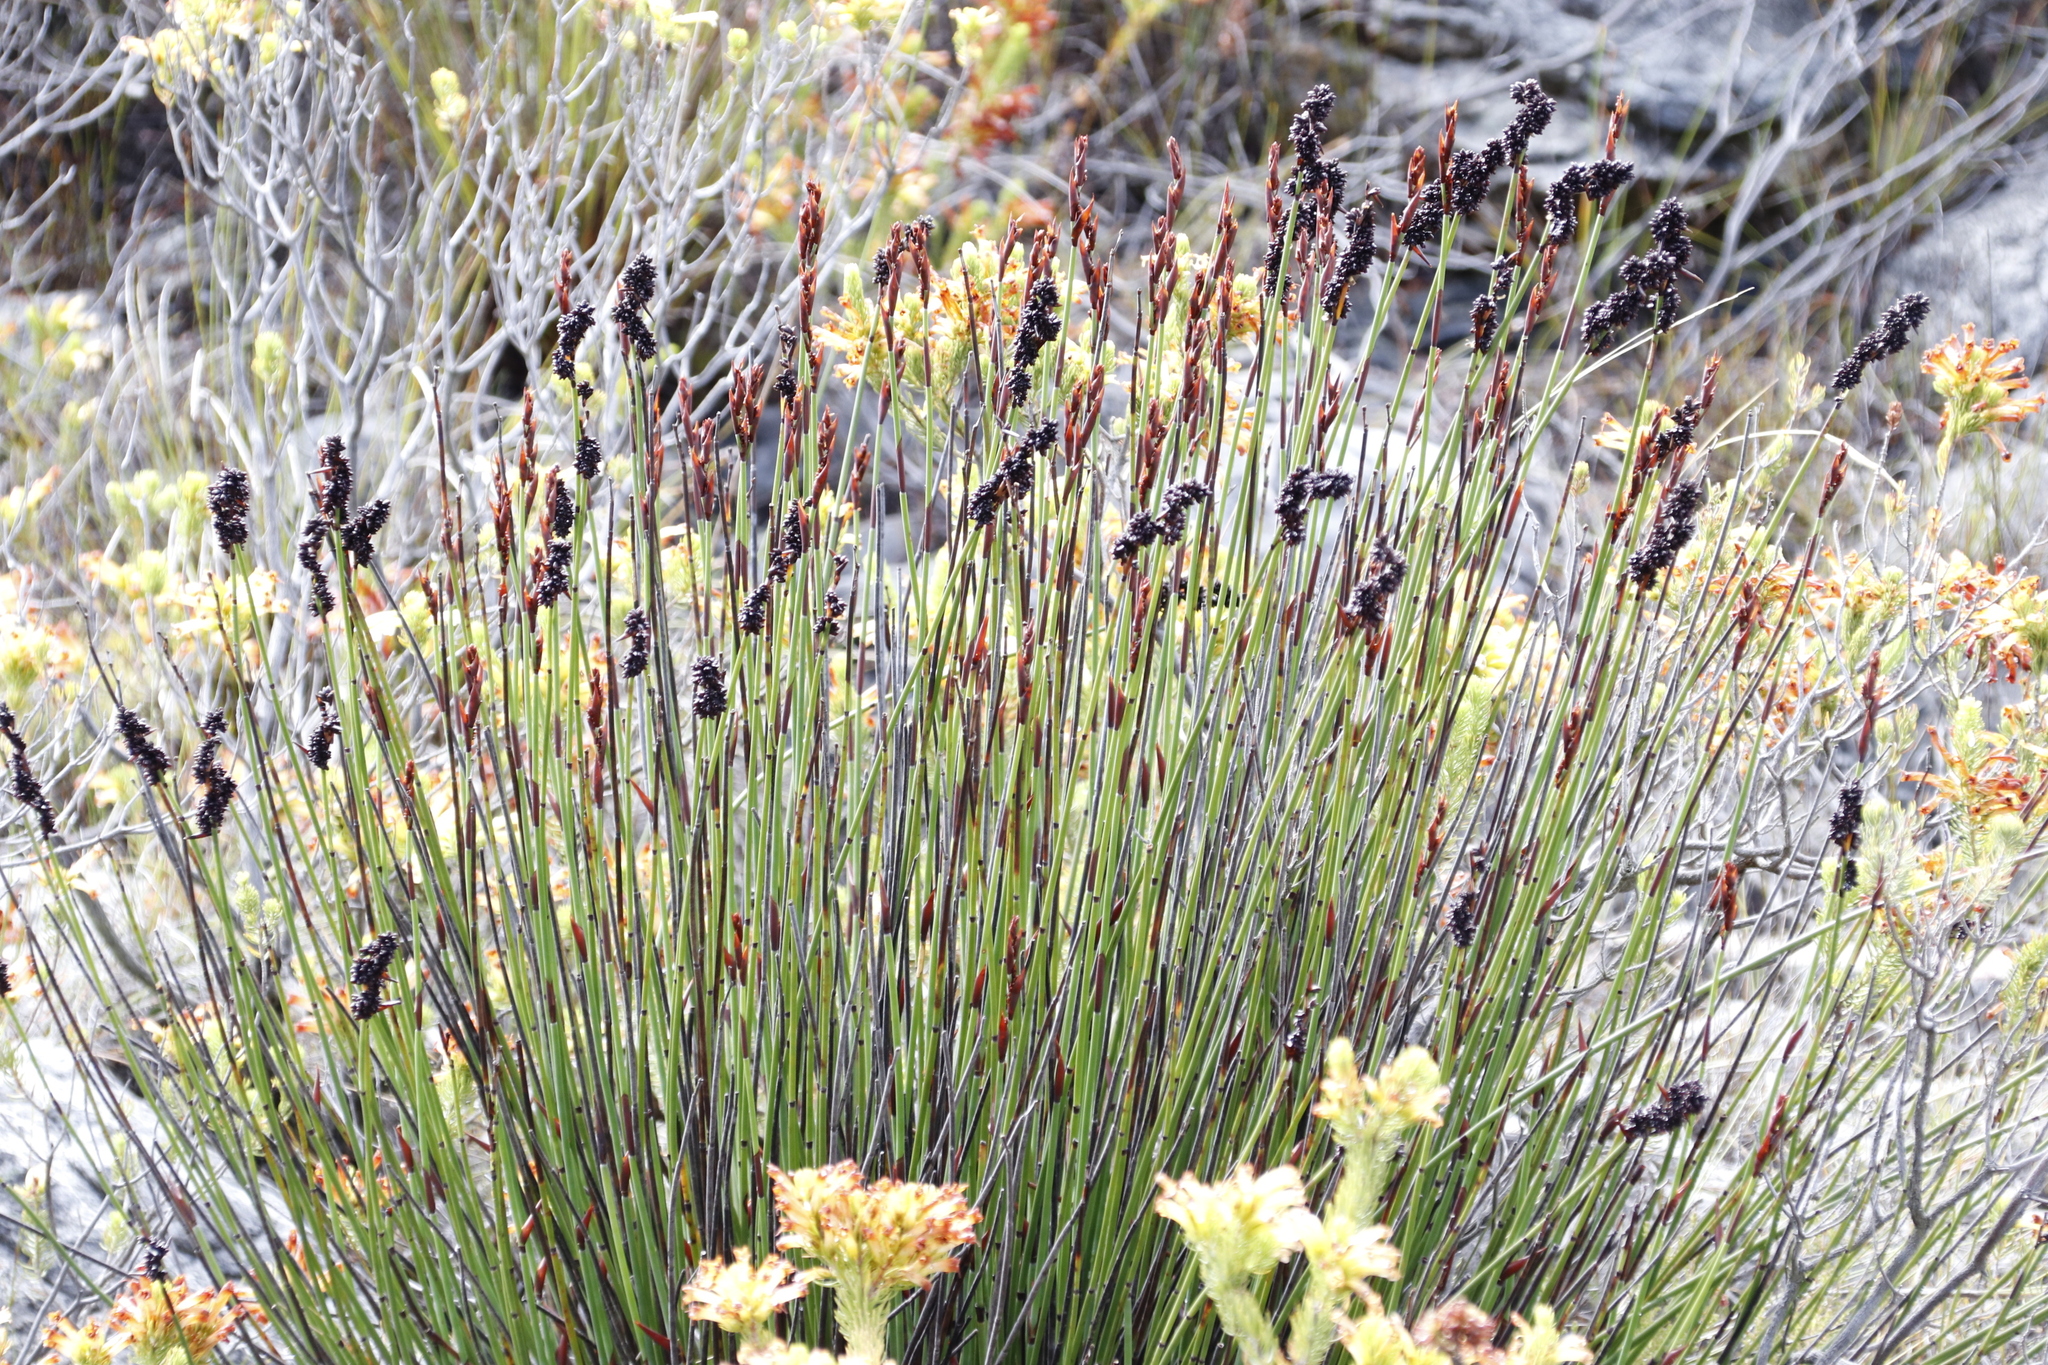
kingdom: Plantae
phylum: Tracheophyta
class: Liliopsida
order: Poales
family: Restionaceae
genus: Elegia
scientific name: Elegia ebracteata
